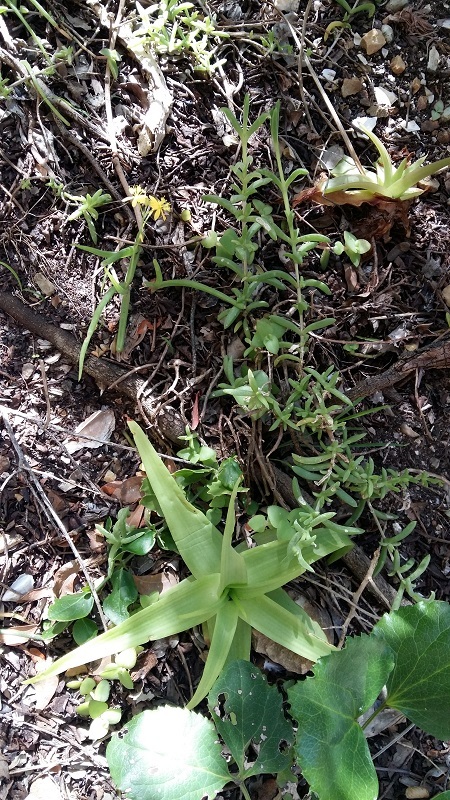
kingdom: Plantae
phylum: Tracheophyta
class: Liliopsida
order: Asparagales
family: Asphodelaceae
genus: Bulbine
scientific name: Bulbine latifolia
